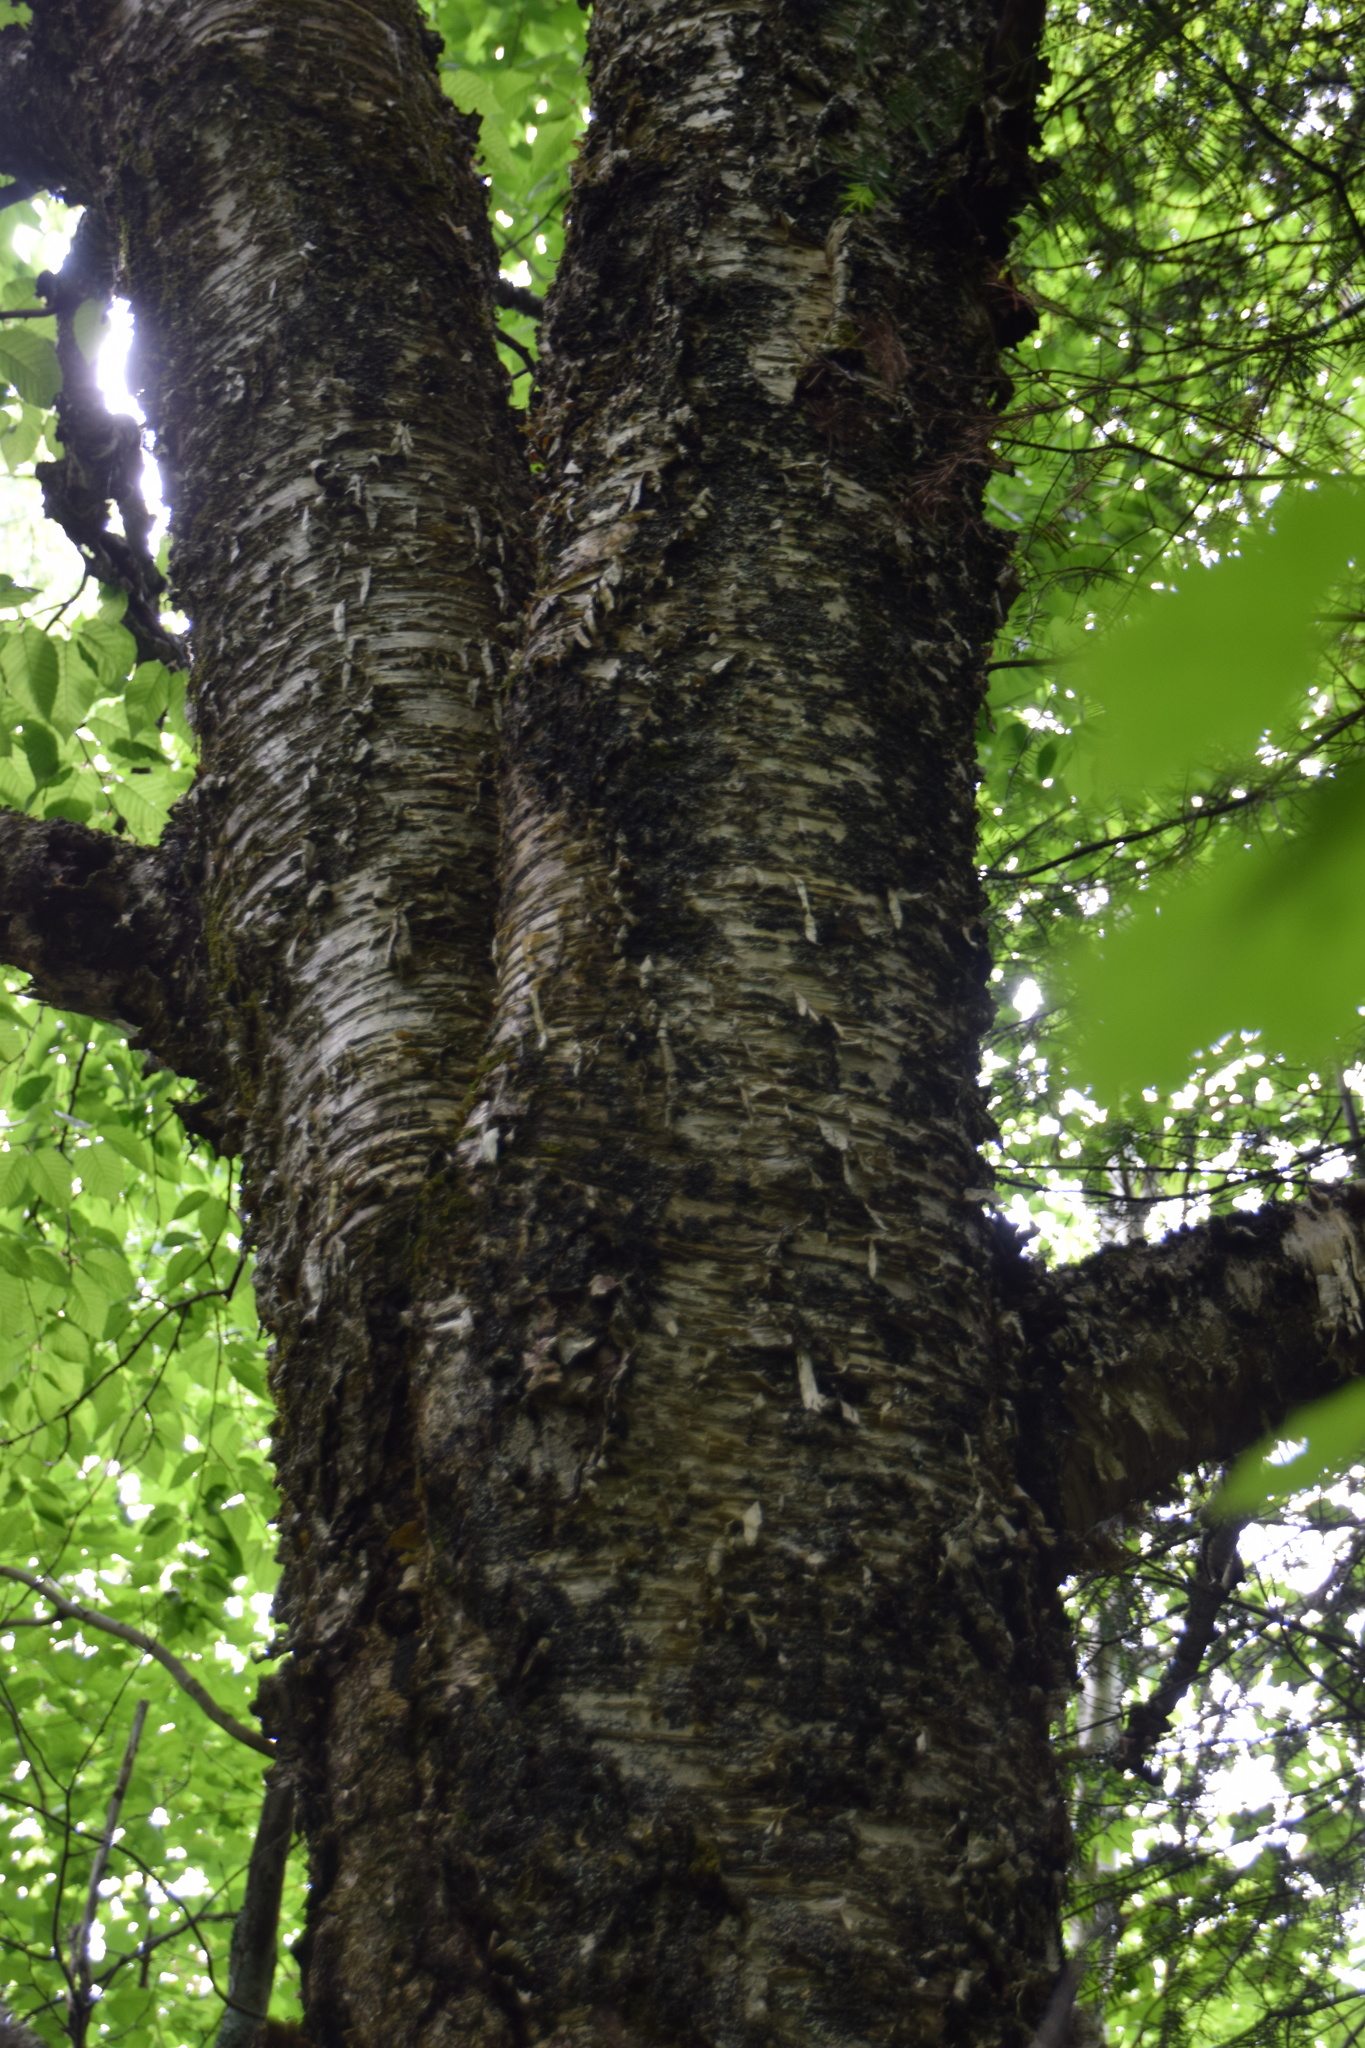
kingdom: Plantae
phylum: Tracheophyta
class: Magnoliopsida
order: Fagales
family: Betulaceae
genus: Betula
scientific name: Betula alleghaniensis
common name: Yellow birch
